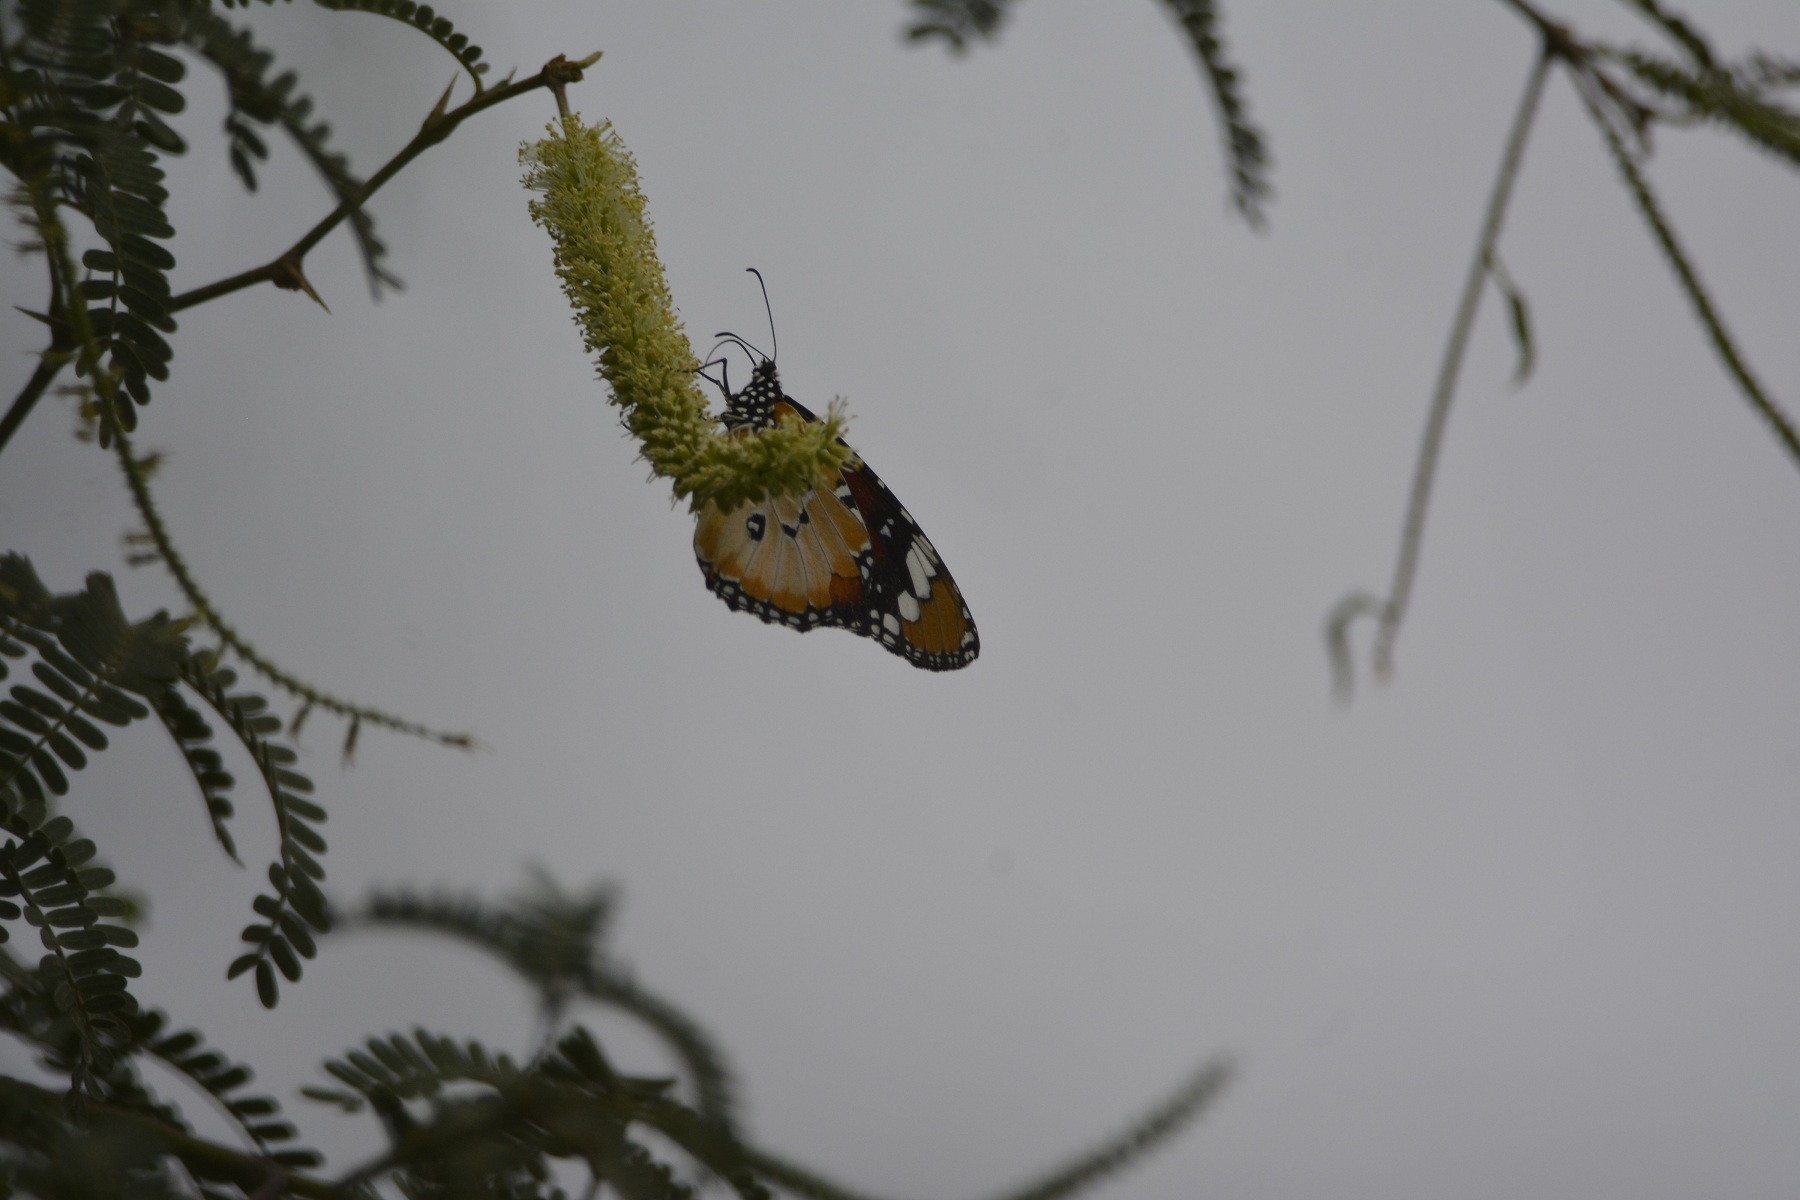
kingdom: Animalia
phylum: Arthropoda
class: Insecta
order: Lepidoptera
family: Nymphalidae
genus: Danaus
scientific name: Danaus chrysippus
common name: Plain tiger
